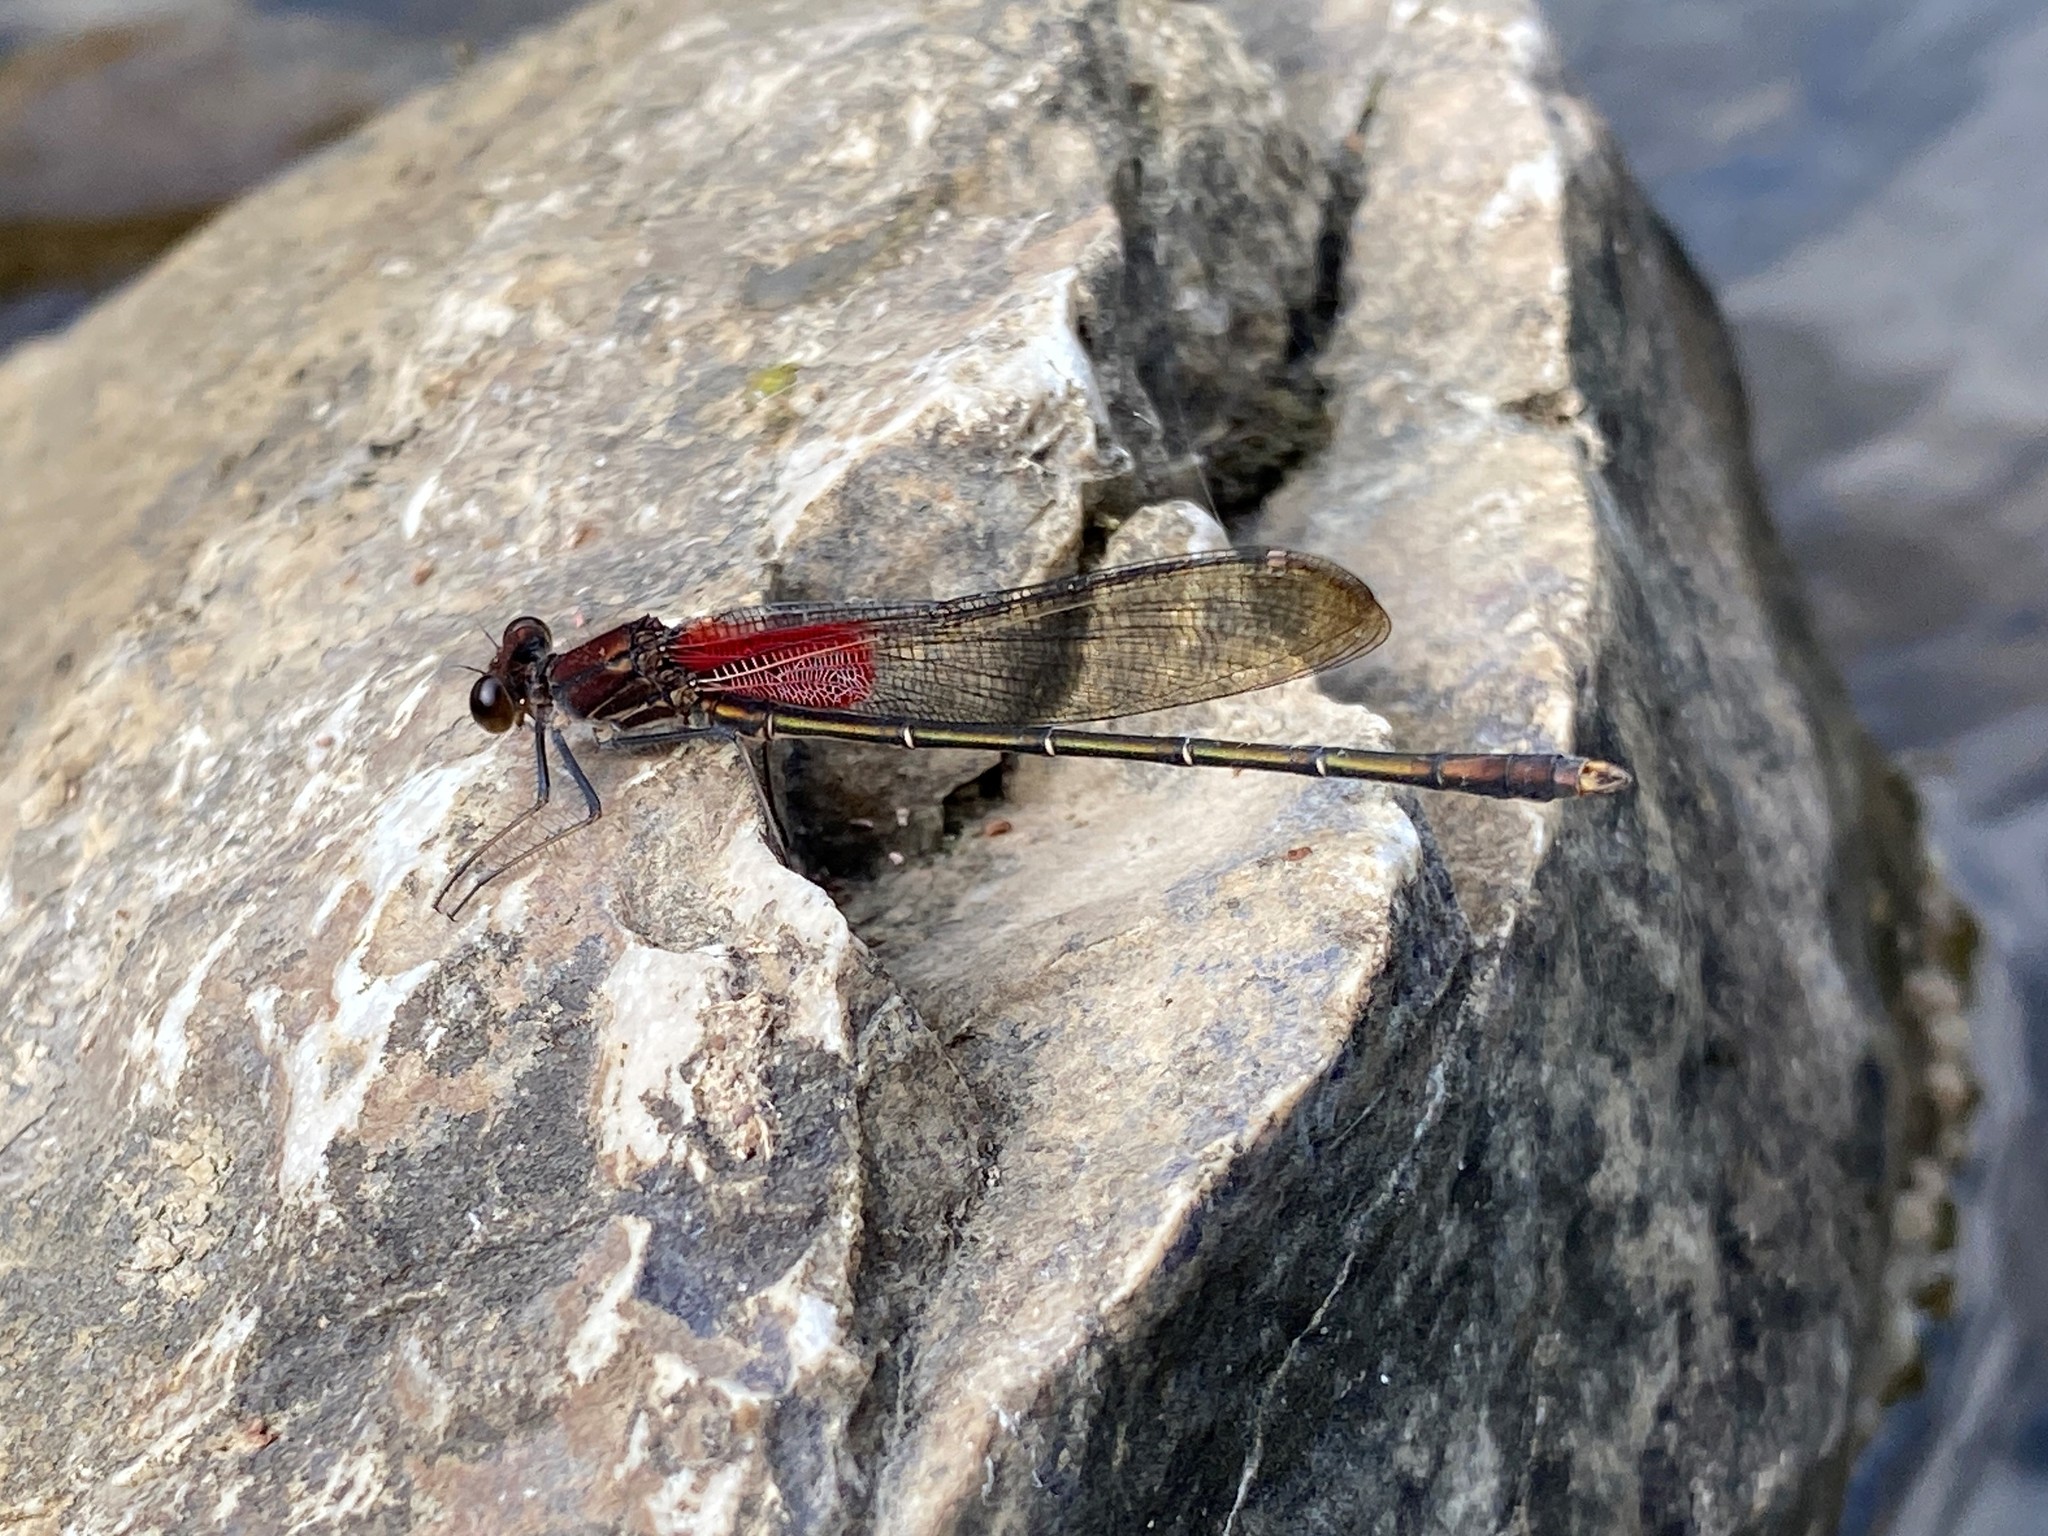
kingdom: Animalia
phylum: Arthropoda
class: Insecta
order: Odonata
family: Calopterygidae
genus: Hetaerina
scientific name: Hetaerina americana
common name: American rubyspot
